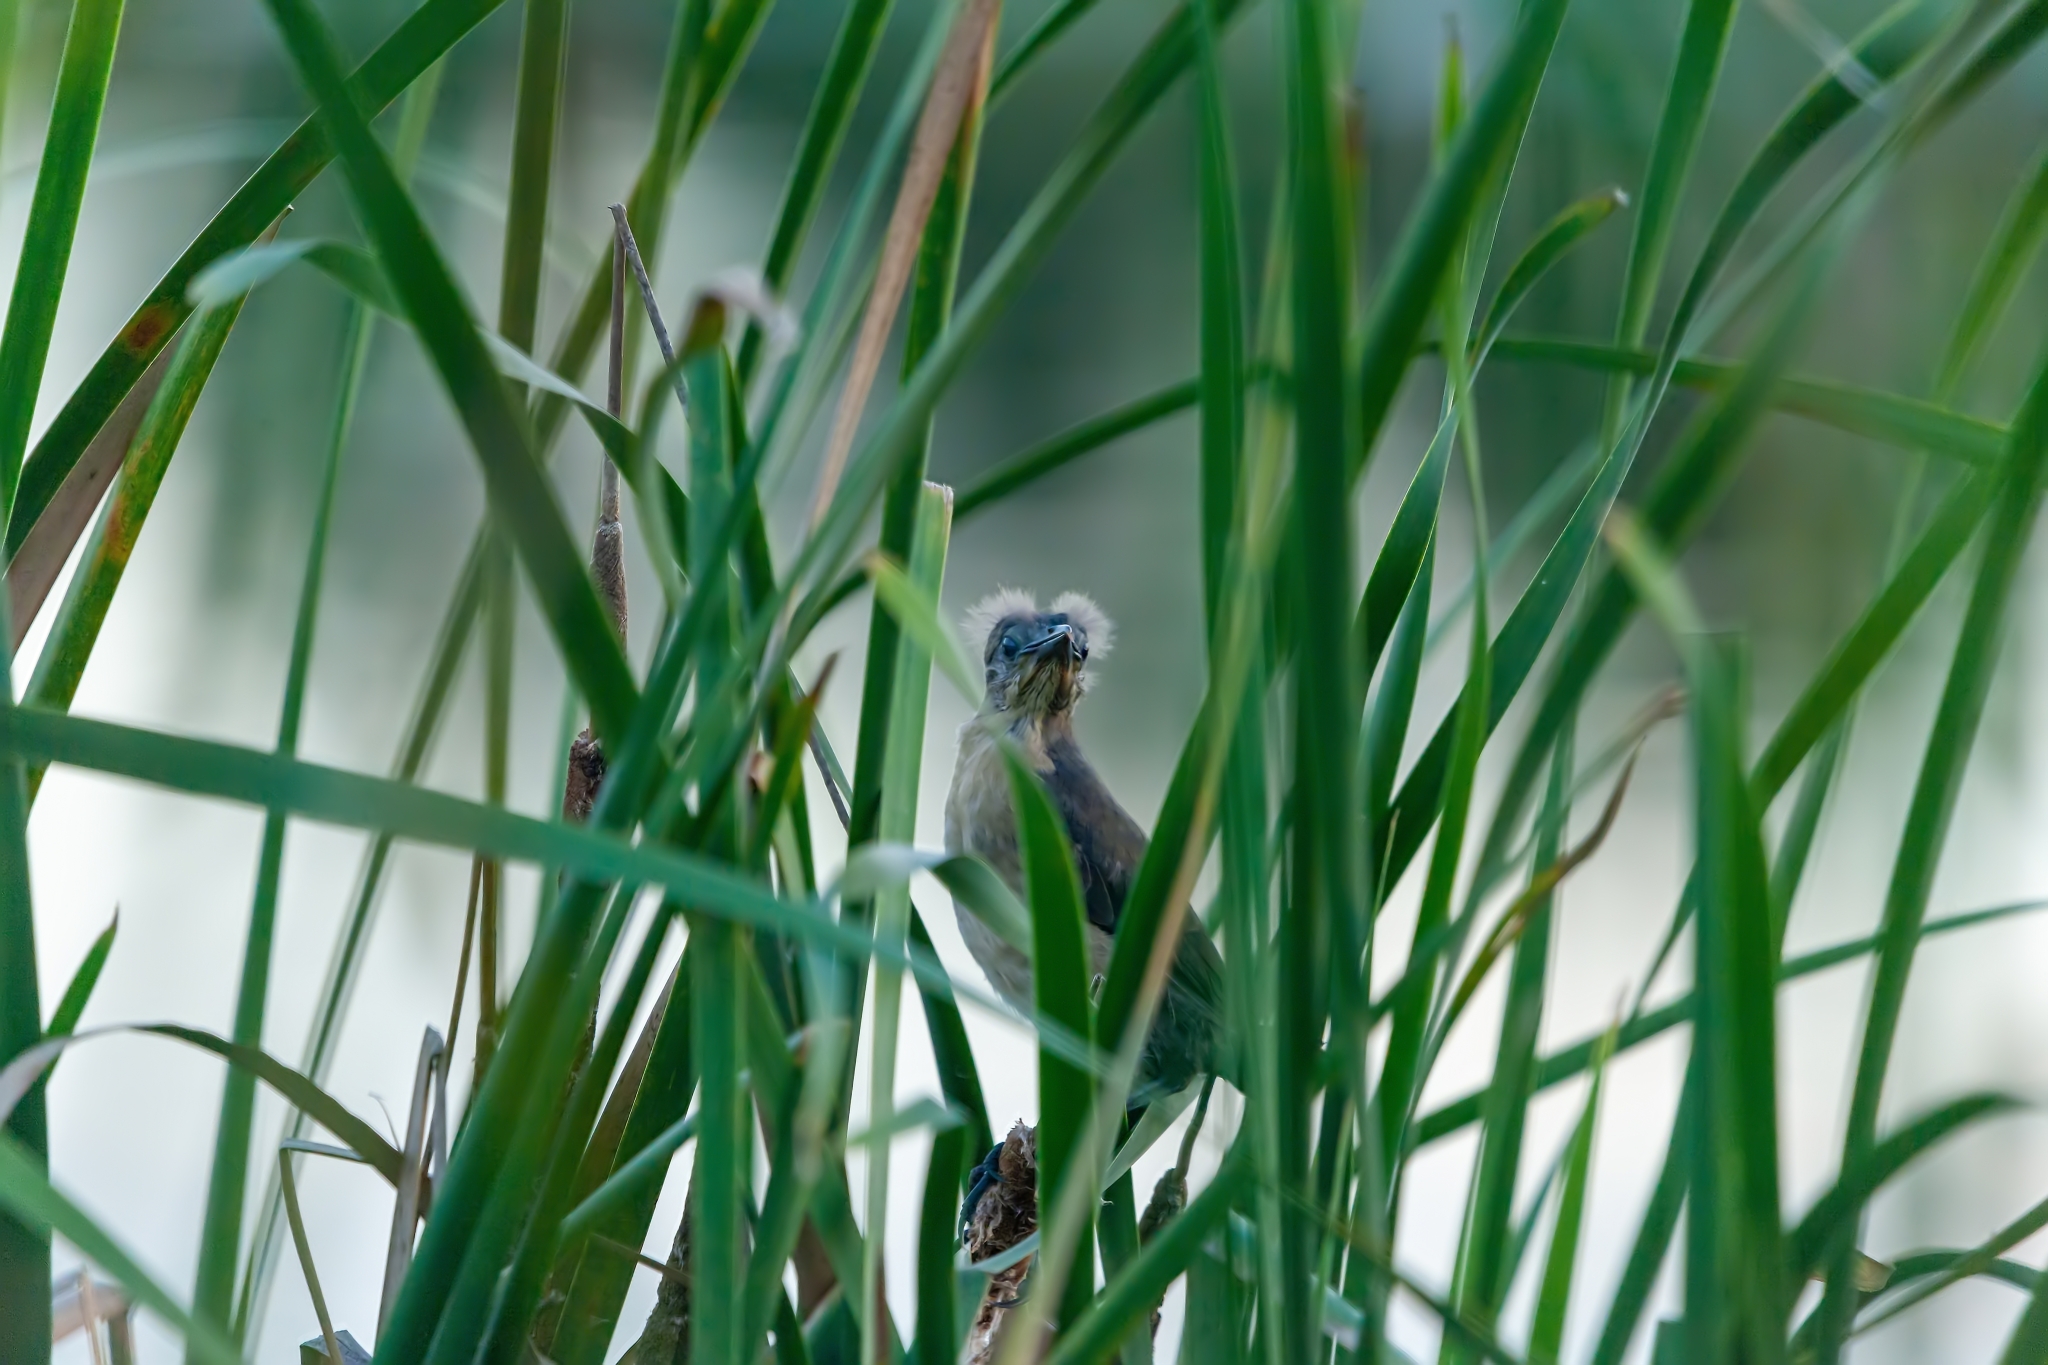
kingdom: Animalia
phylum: Chordata
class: Aves
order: Passeriformes
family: Icteridae
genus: Quiscalus
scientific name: Quiscalus major
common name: Boat-tailed grackle
